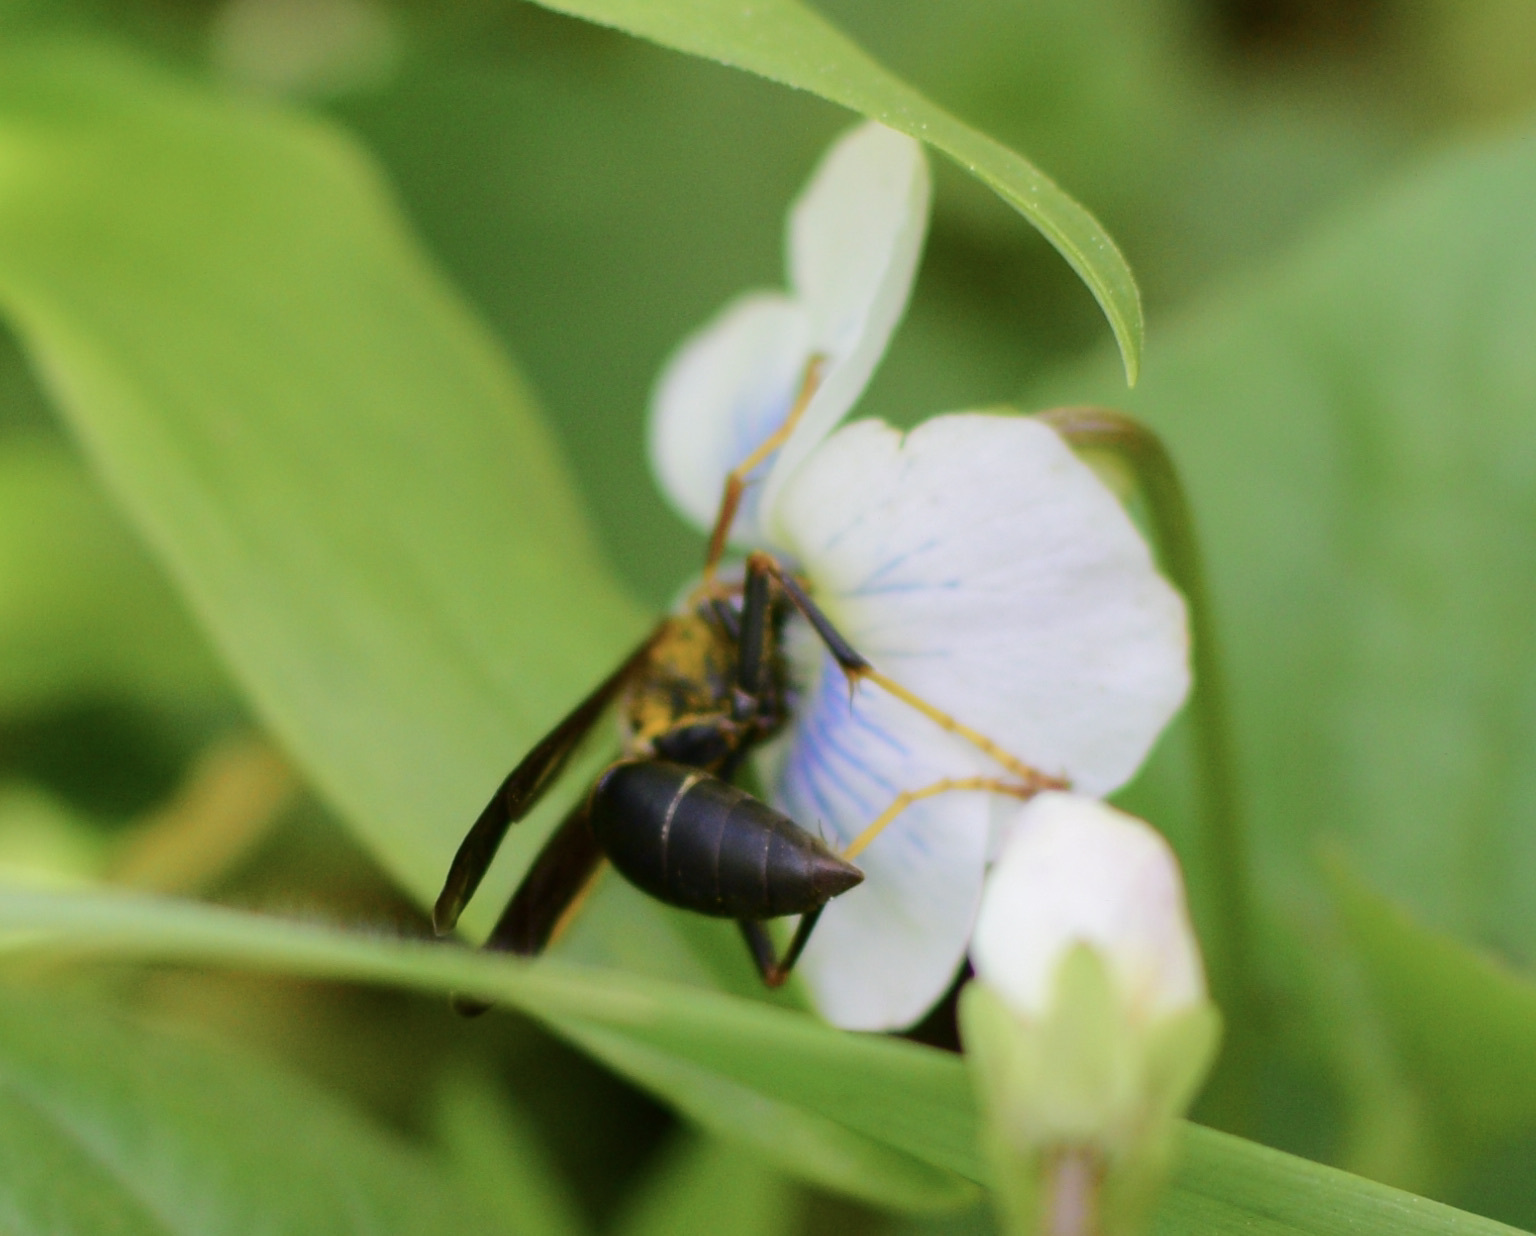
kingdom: Animalia
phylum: Arthropoda
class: Insecta
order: Hymenoptera
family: Eumenidae
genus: Polistes
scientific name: Polistes fuscatus
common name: Dark paper wasp
